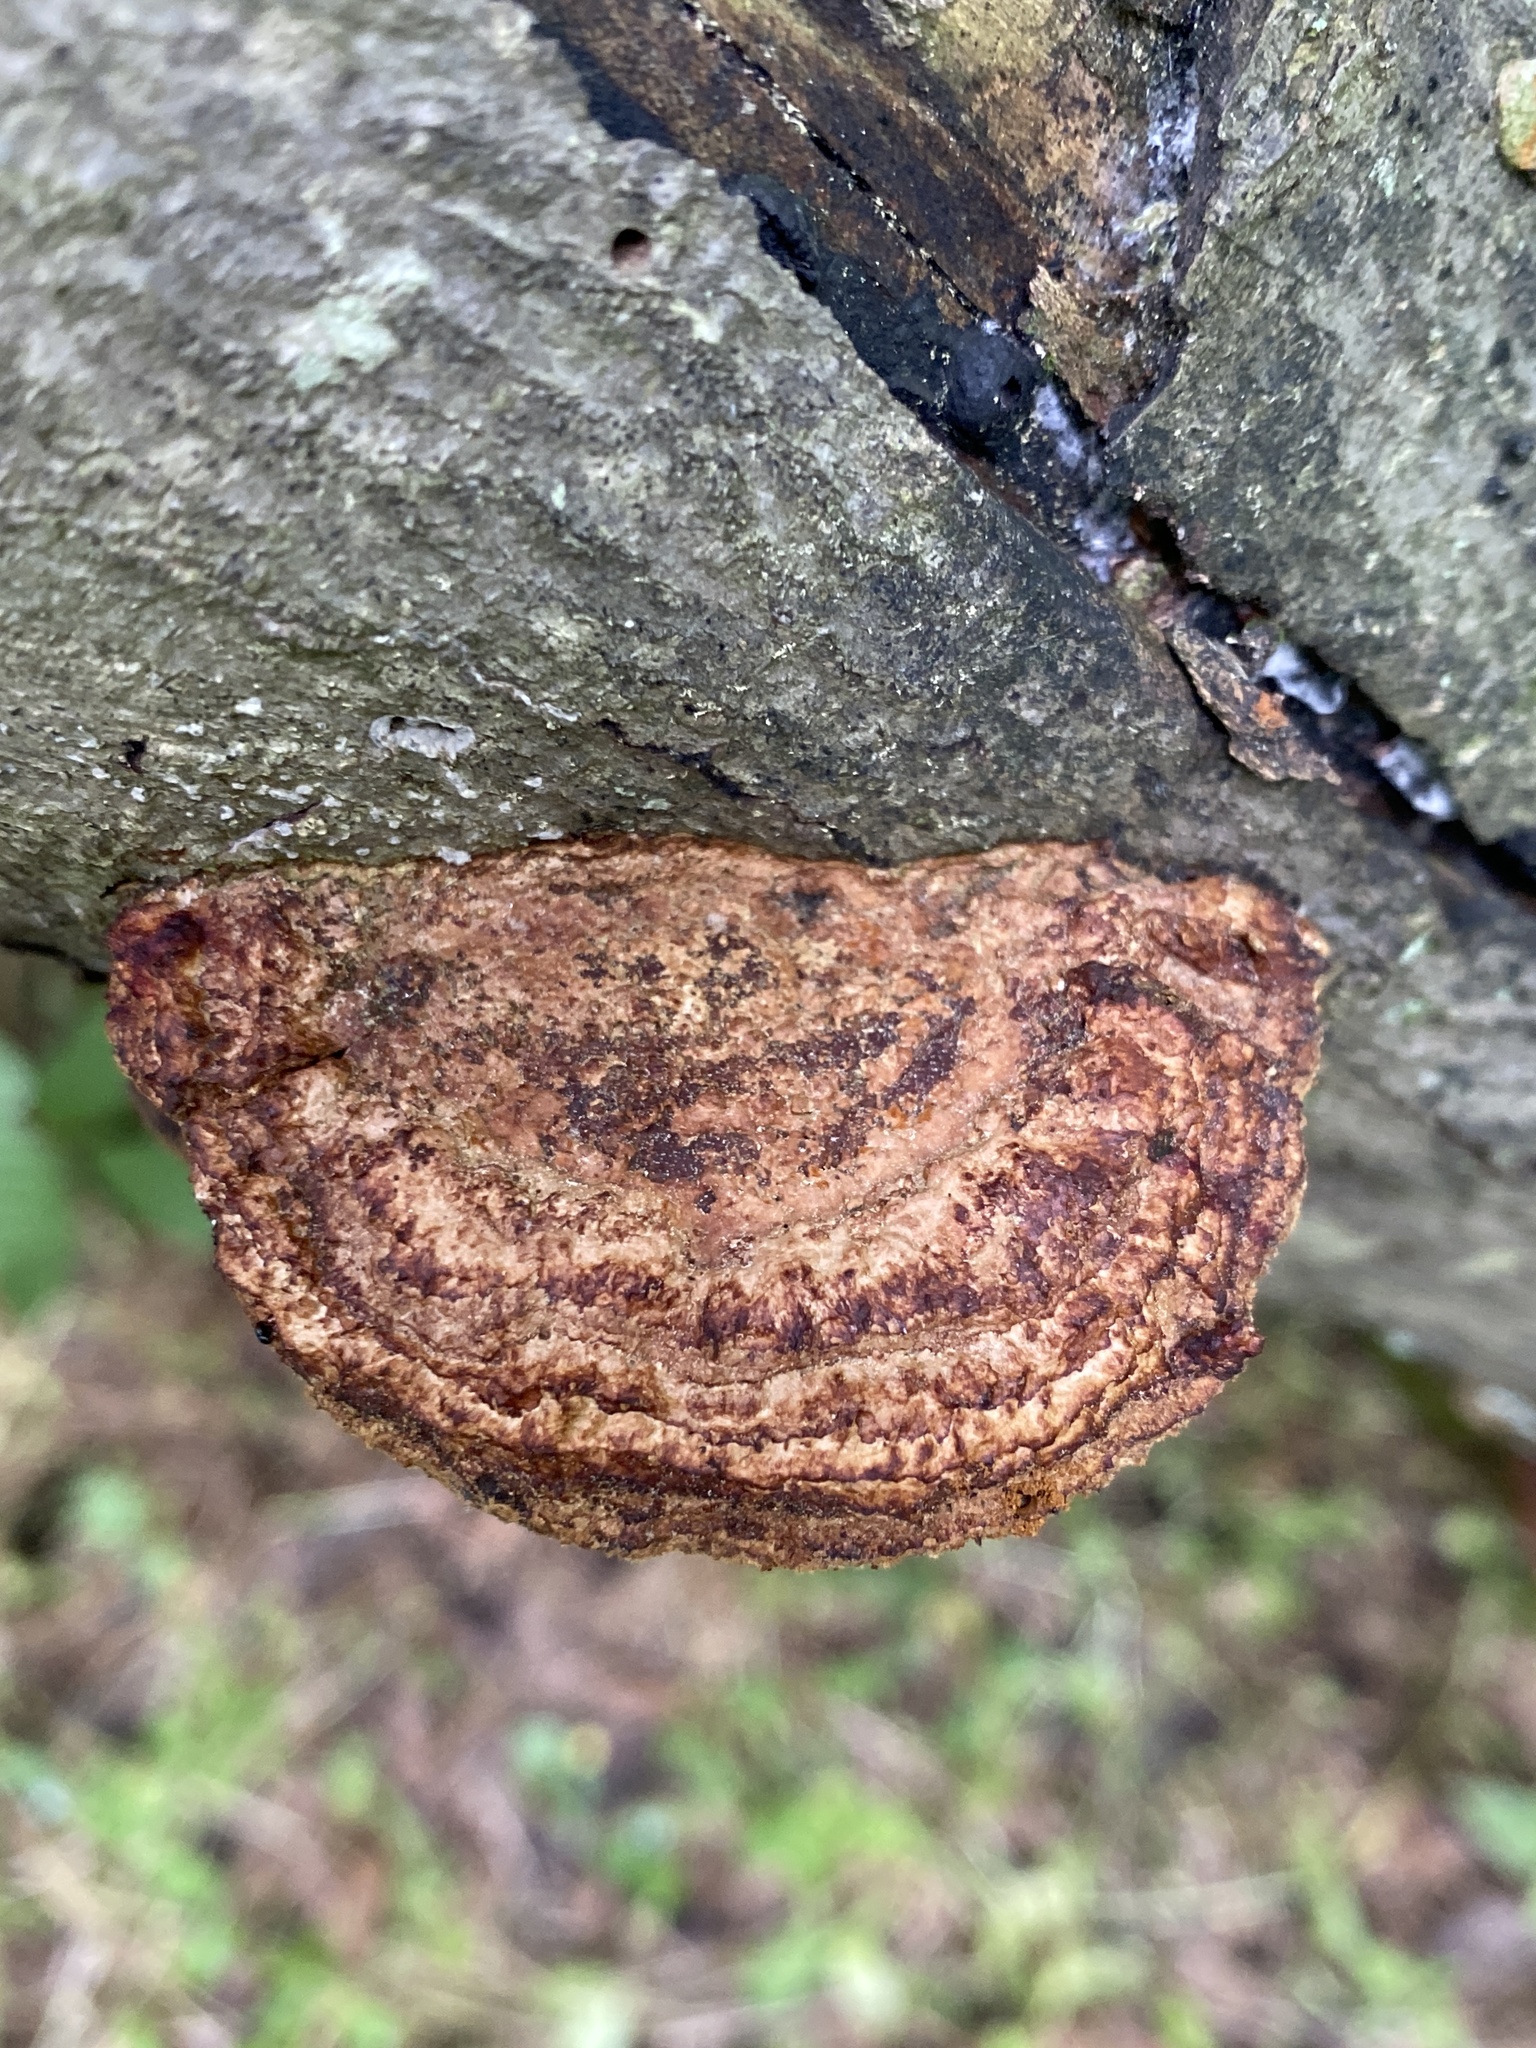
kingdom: Fungi
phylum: Basidiomycota
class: Agaricomycetes
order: Hymenochaetales
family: Hymenochaetaceae
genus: Phellinus
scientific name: Phellinus gilvus
